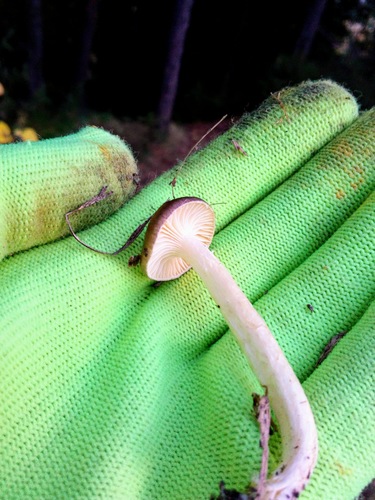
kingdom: Fungi
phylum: Basidiomycota
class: Agaricomycetes
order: Agaricales
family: Hygrophoraceae
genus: Hygrophorus
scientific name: Hygrophorus
